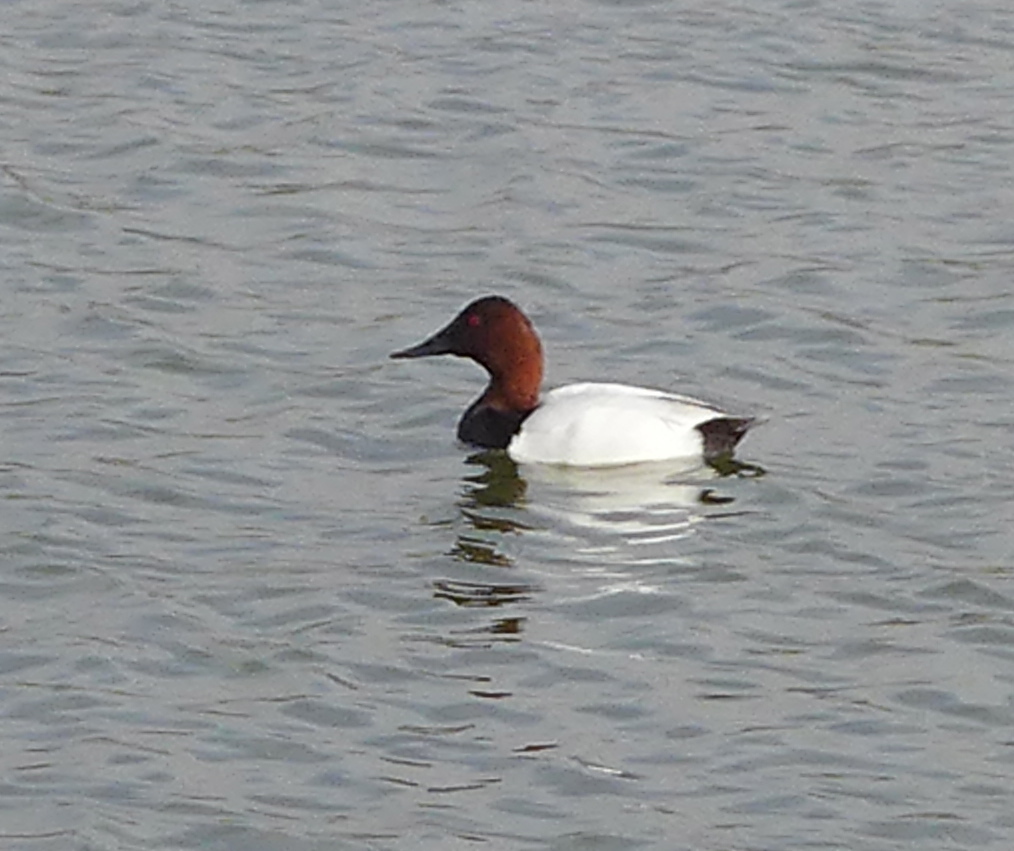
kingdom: Animalia
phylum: Chordata
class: Aves
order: Anseriformes
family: Anatidae
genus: Aythya
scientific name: Aythya valisineria
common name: Canvasback
